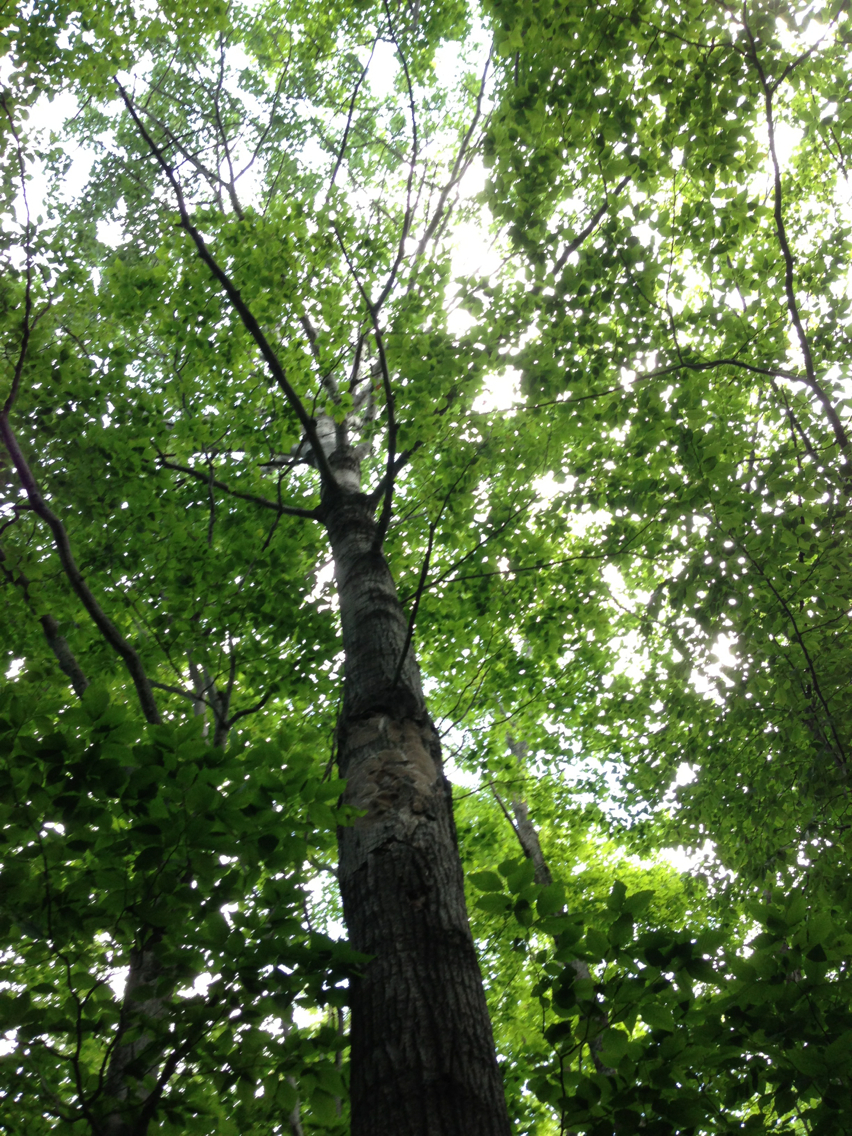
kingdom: Plantae
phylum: Tracheophyta
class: Magnoliopsida
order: Malpighiales
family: Salicaceae
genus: Populus
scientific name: Populus grandidentata
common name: Bigtooth aspen
